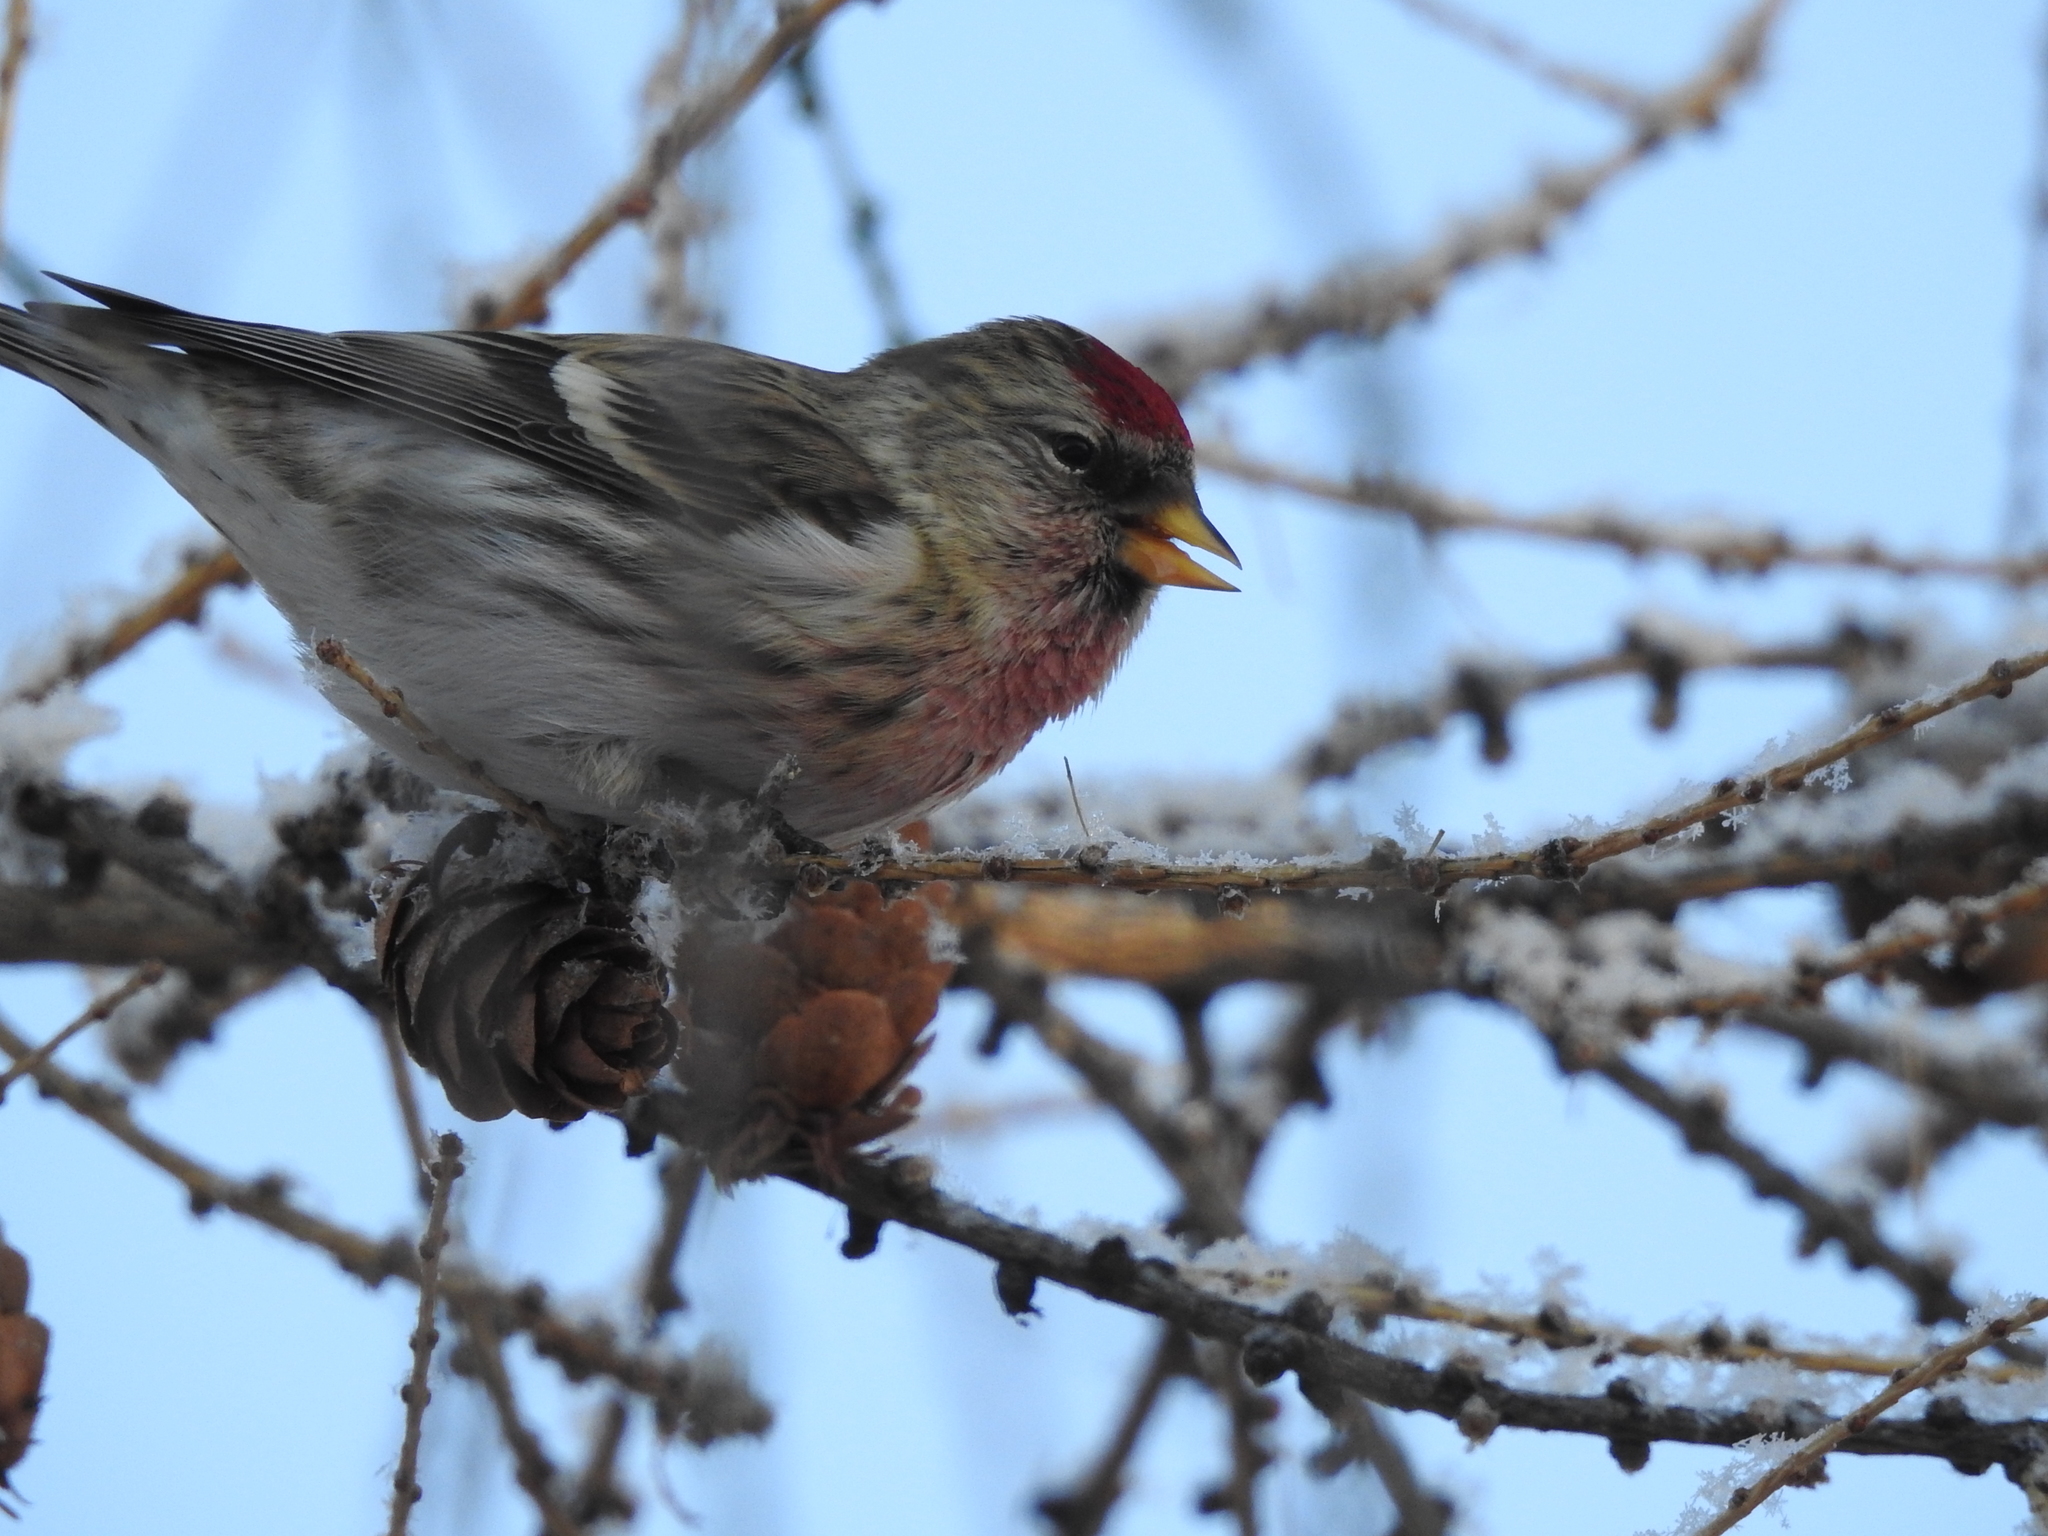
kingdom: Animalia
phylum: Chordata
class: Aves
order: Passeriformes
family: Fringillidae
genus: Acanthis
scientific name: Acanthis flammea
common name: Common redpoll
